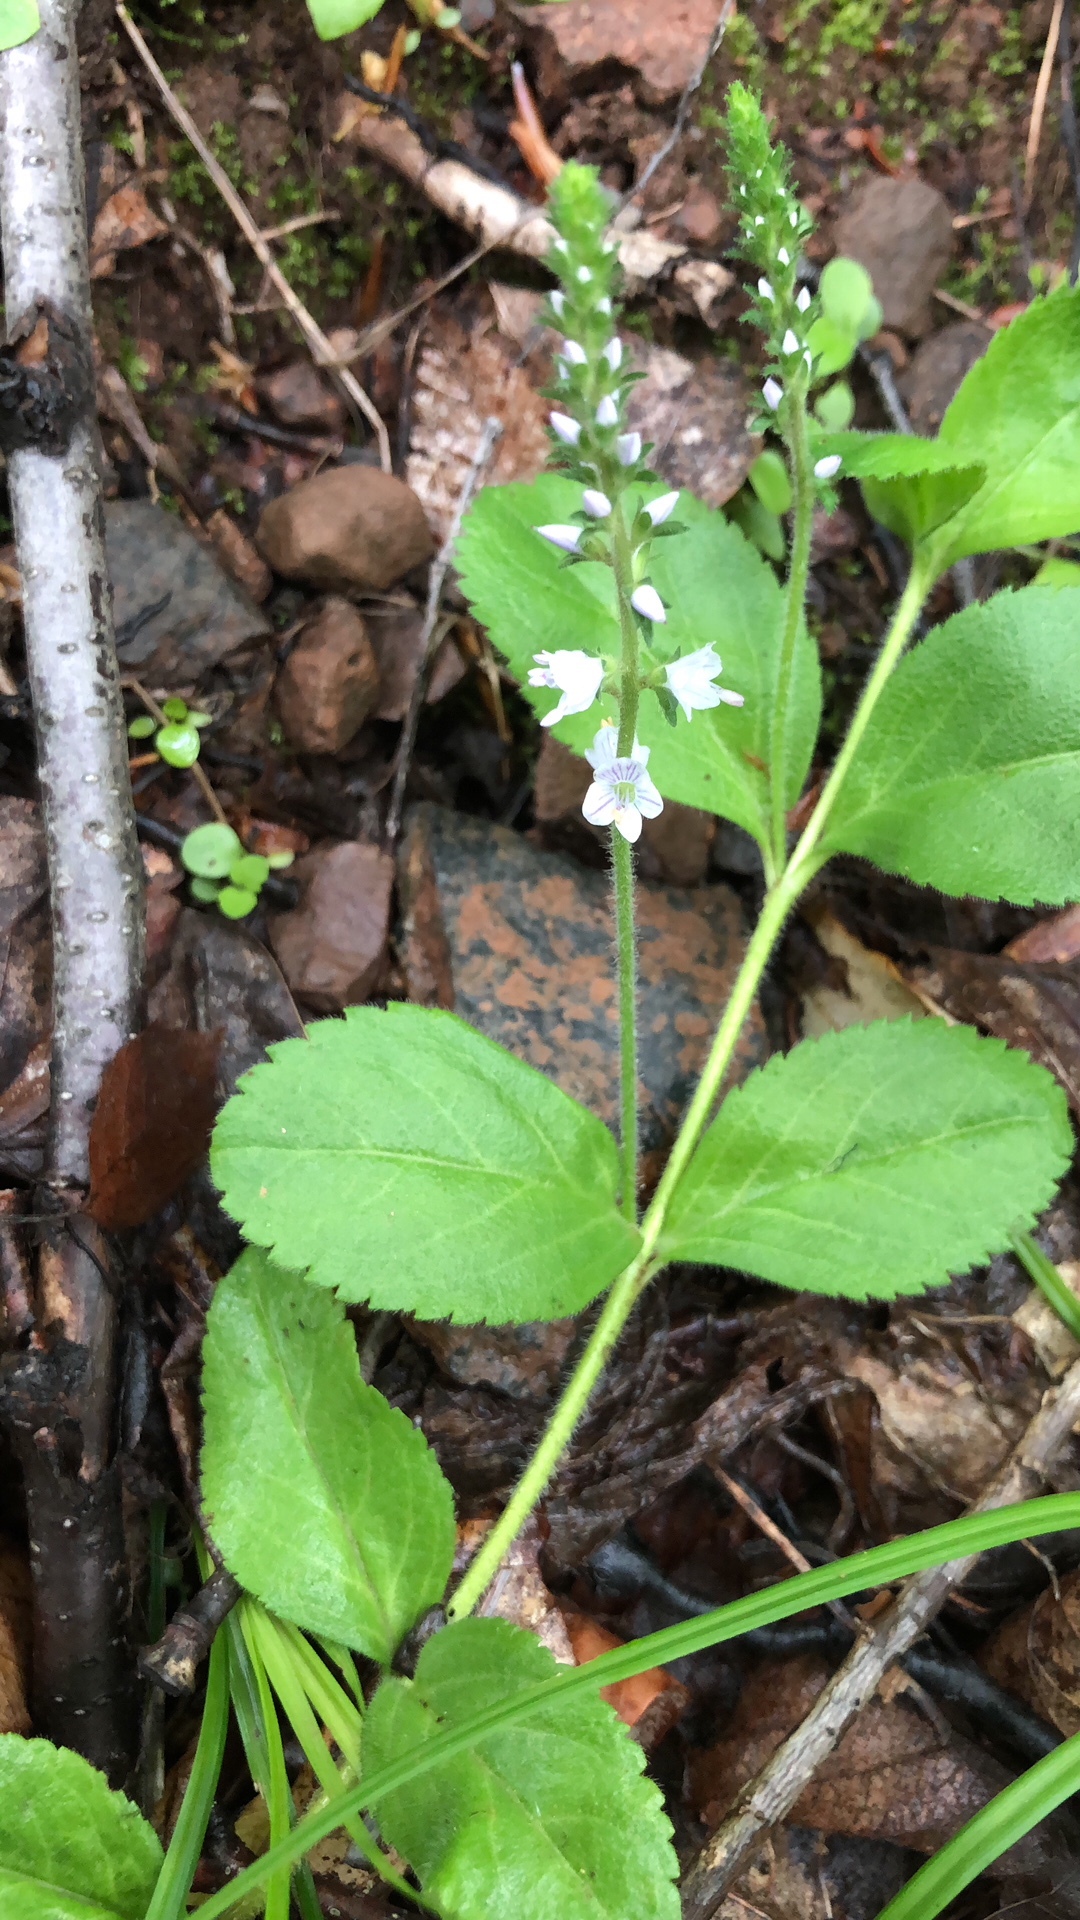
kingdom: Plantae
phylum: Tracheophyta
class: Magnoliopsida
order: Lamiales
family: Plantaginaceae
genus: Veronica
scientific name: Veronica officinalis
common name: Common speedwell
